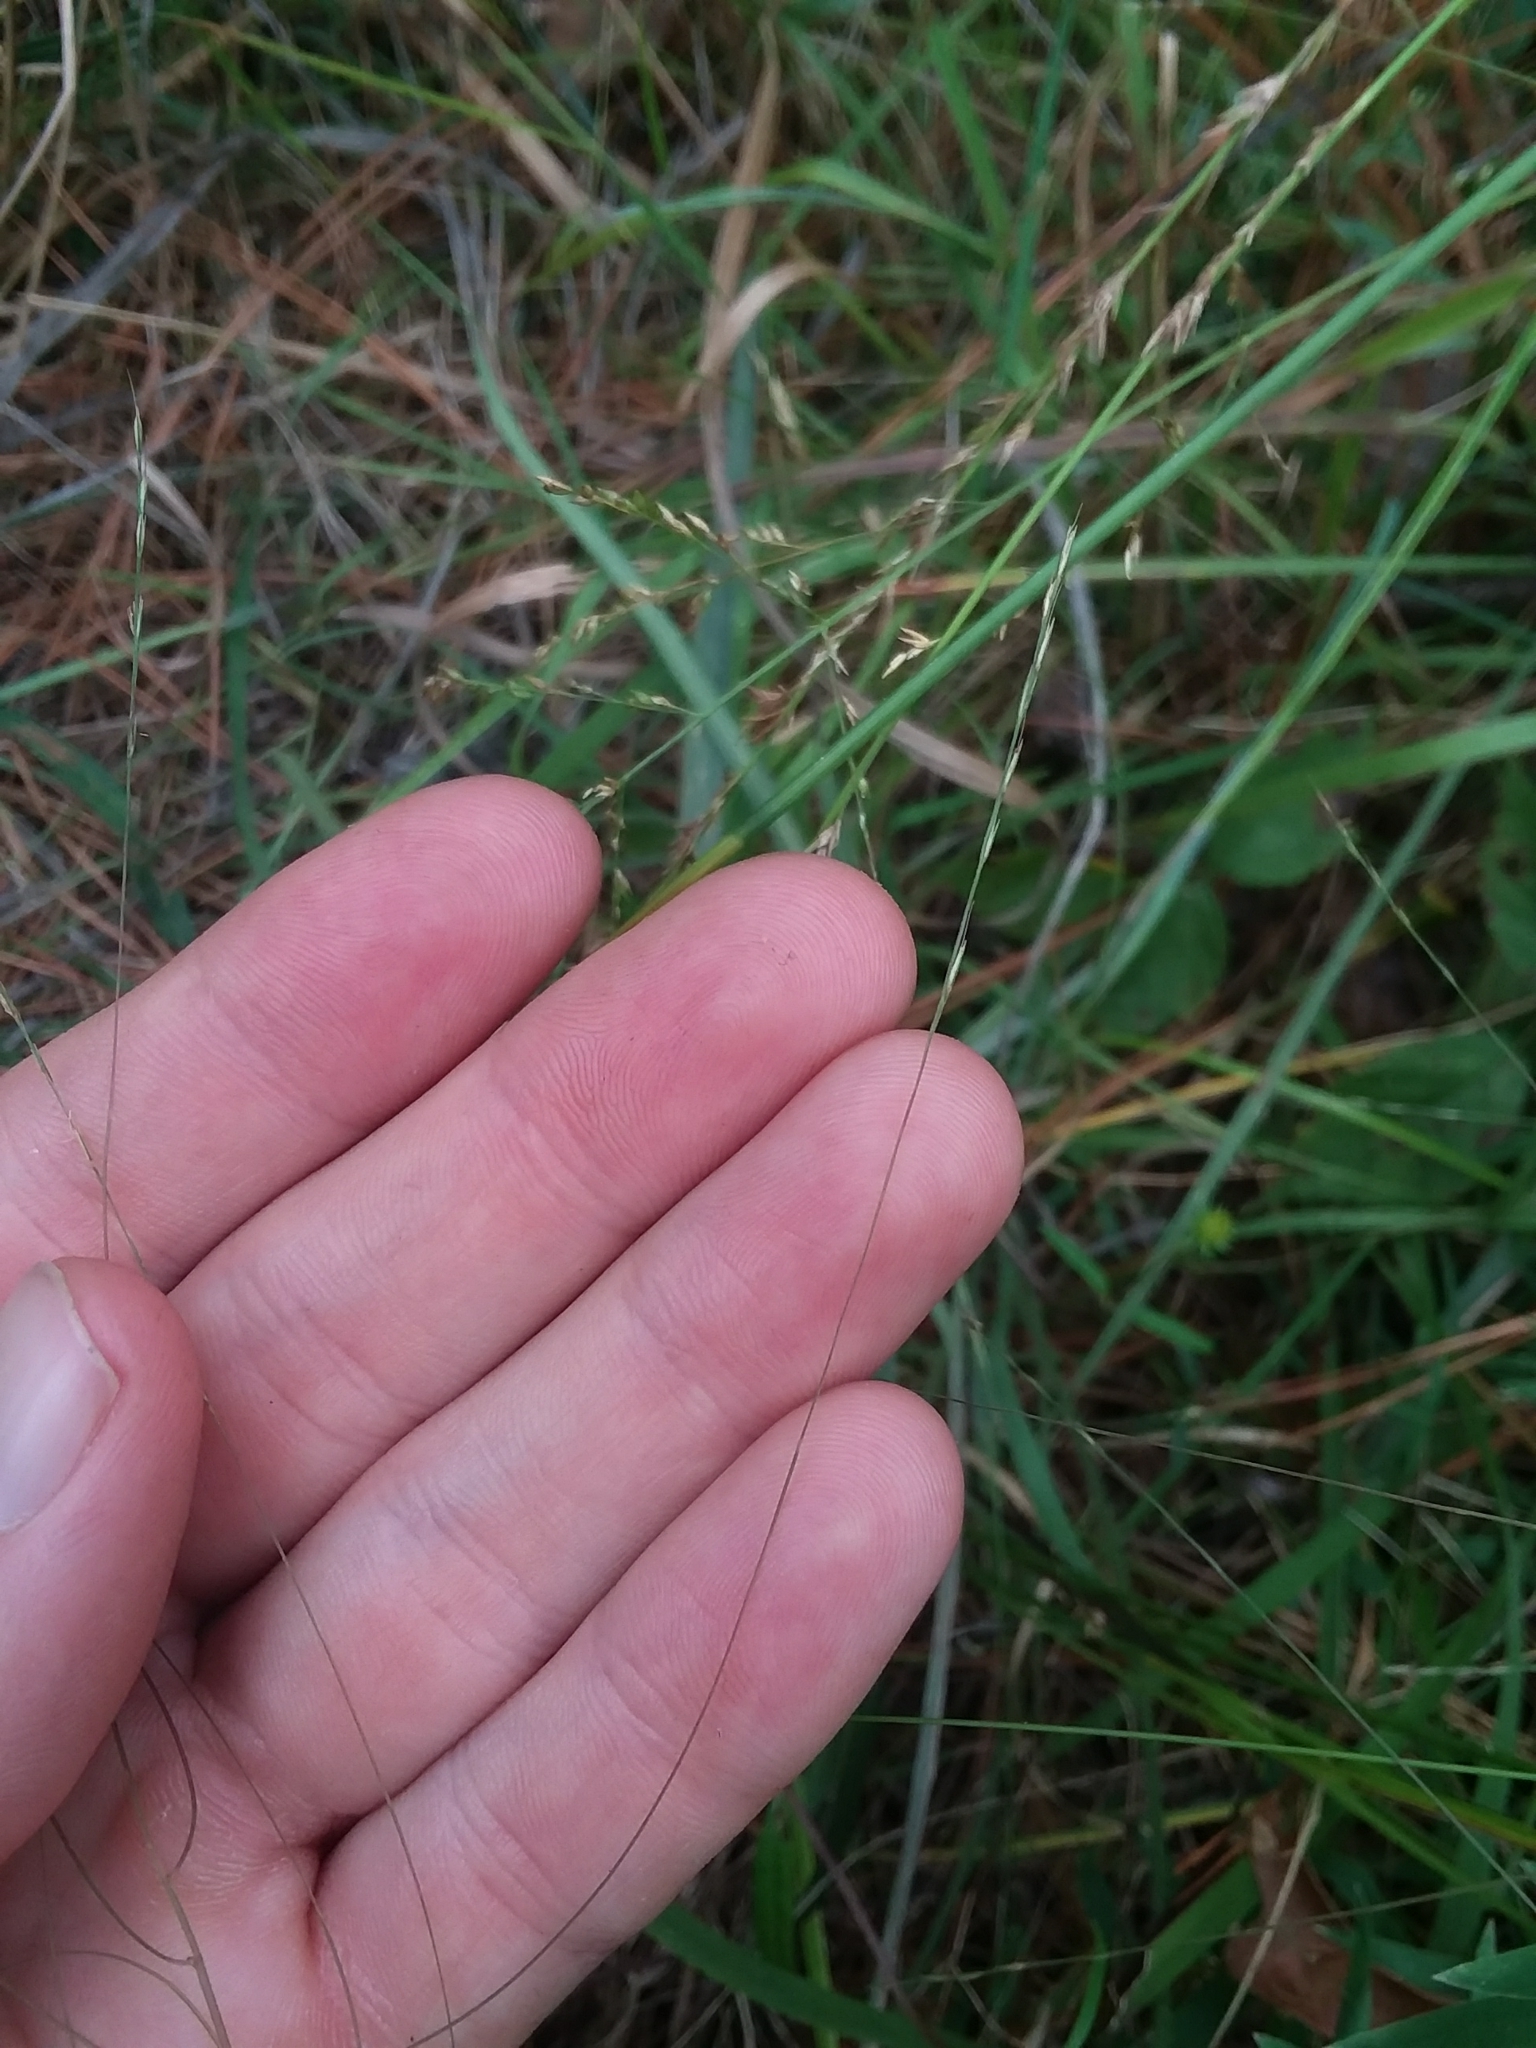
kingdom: Plantae
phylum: Tracheophyta
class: Liliopsida
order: Poales
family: Poaceae
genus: Gymnopogon
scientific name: Gymnopogon brevifolius
